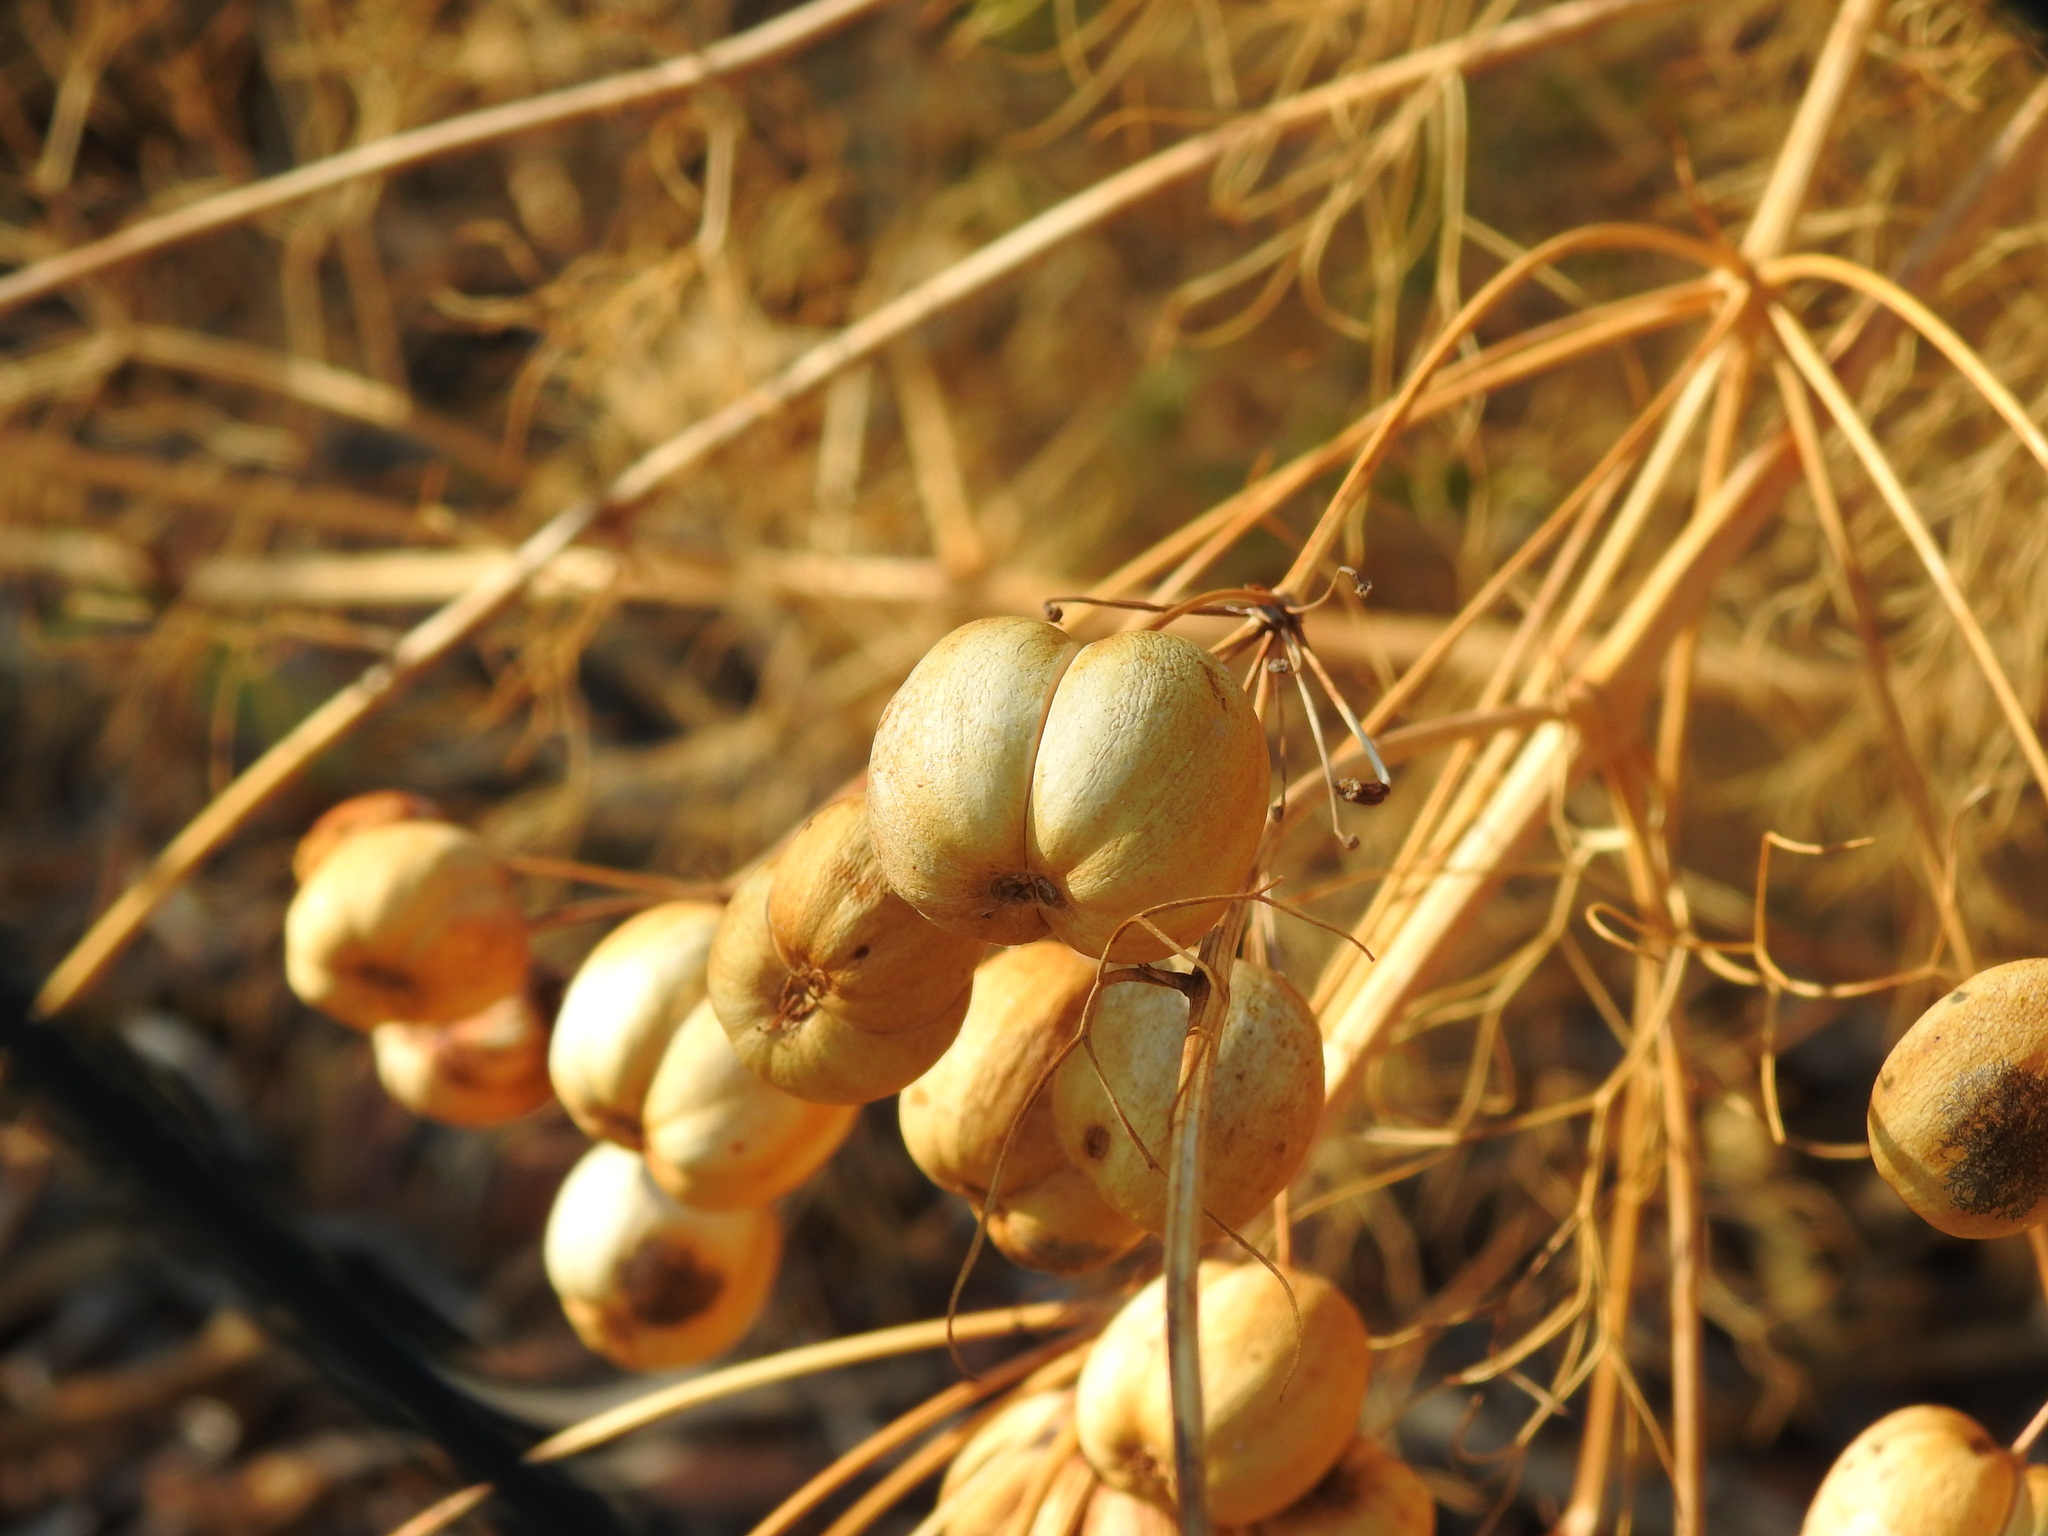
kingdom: Plantae
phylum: Tracheophyta
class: Magnoliopsida
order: Apiales
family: Apiaceae
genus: Prangos
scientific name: Prangos trifida
